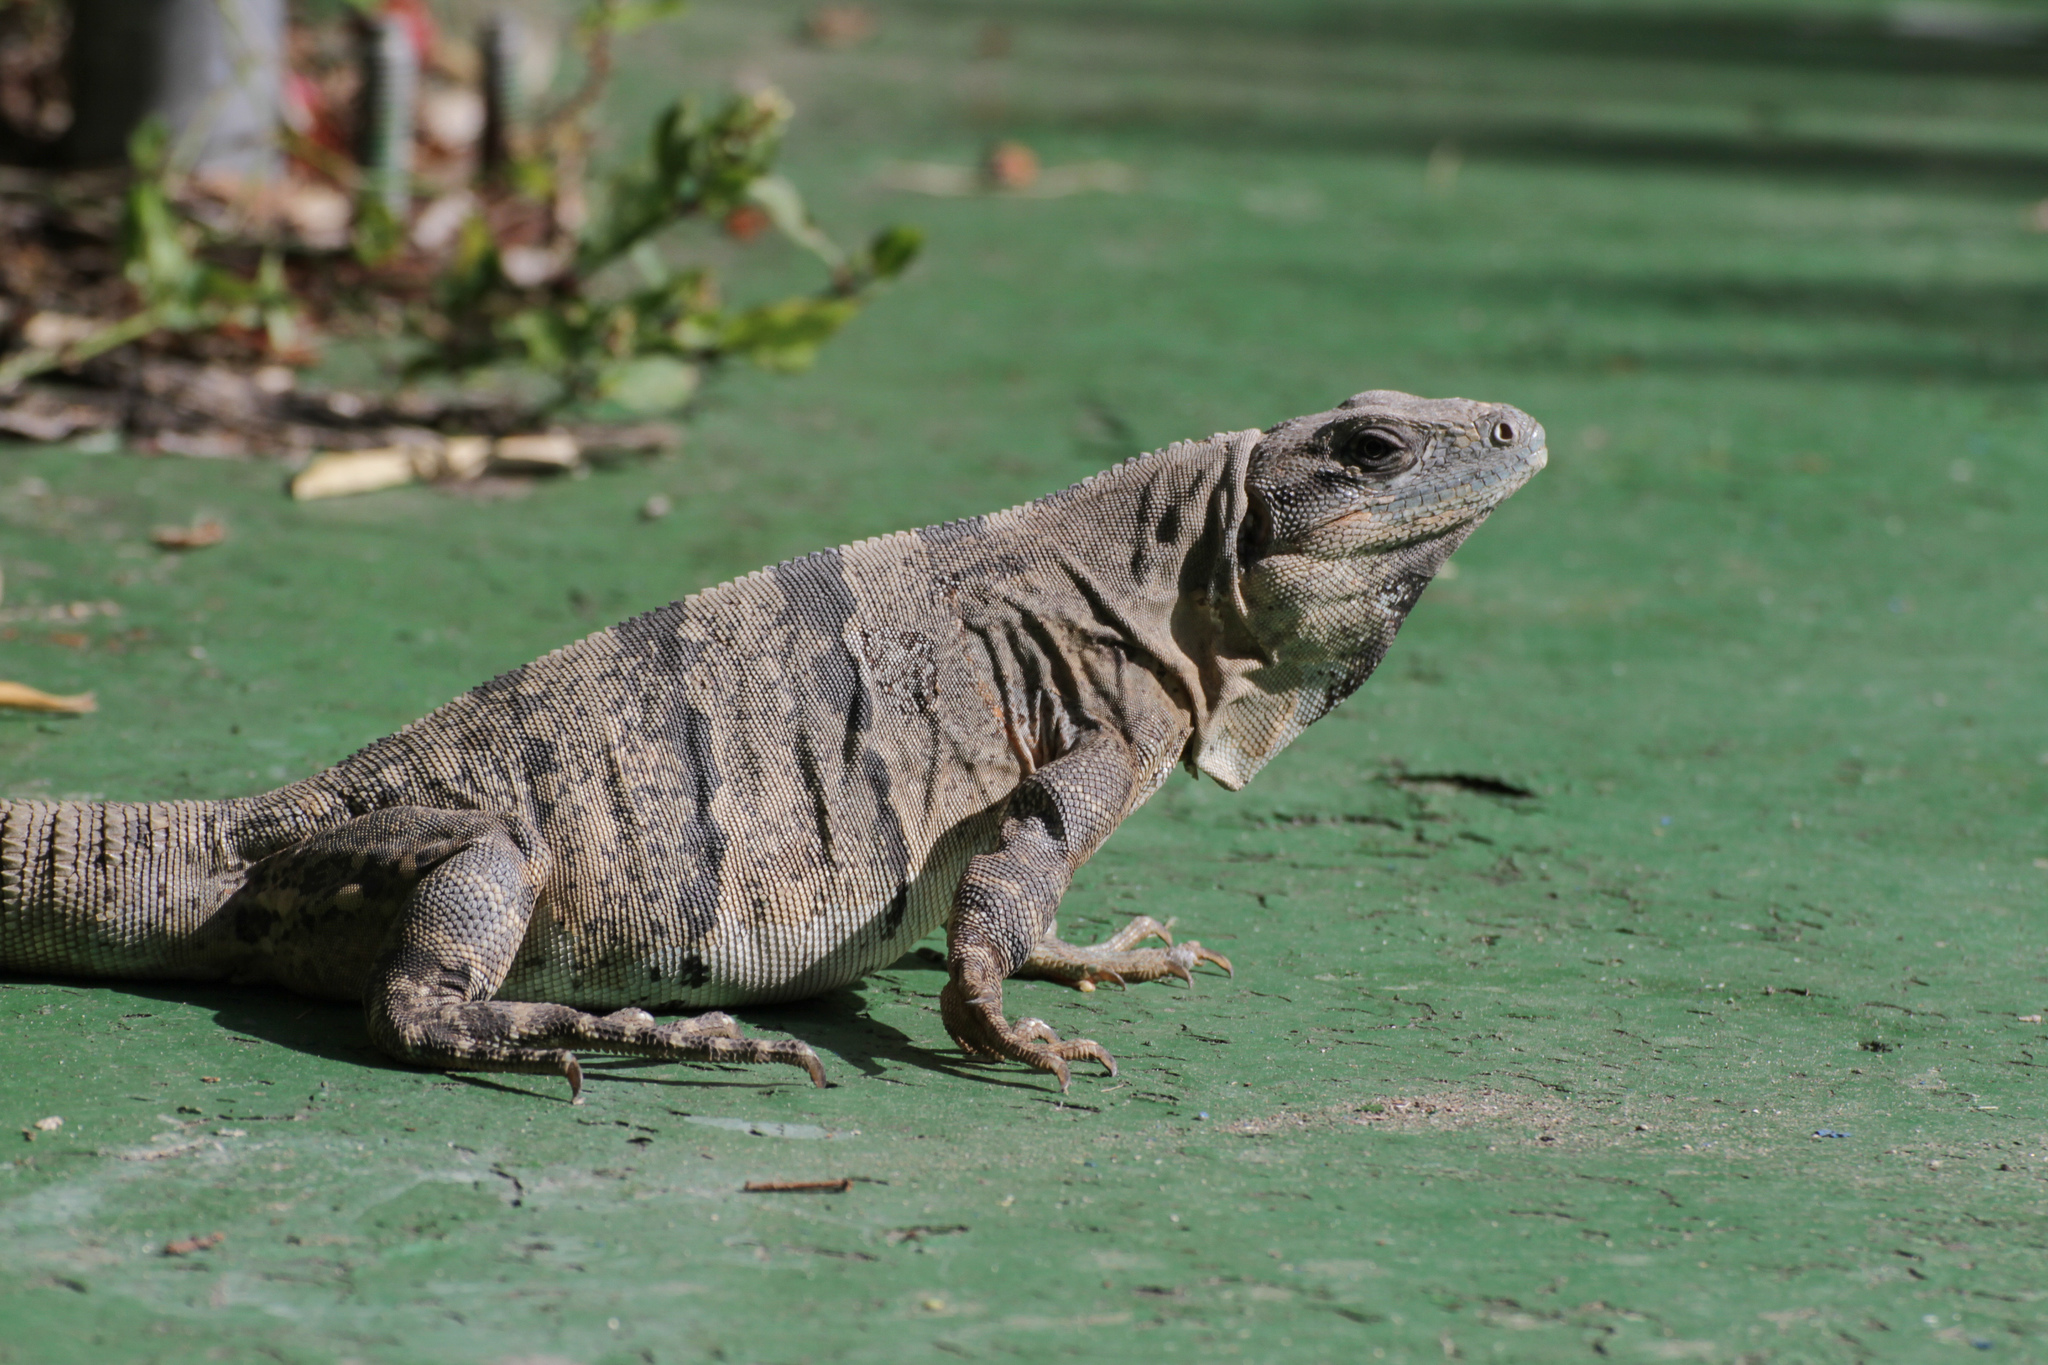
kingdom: Animalia
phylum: Chordata
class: Squamata
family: Iguanidae
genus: Ctenosaura
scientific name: Ctenosaura similis
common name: Black spiny-tailed iguana
